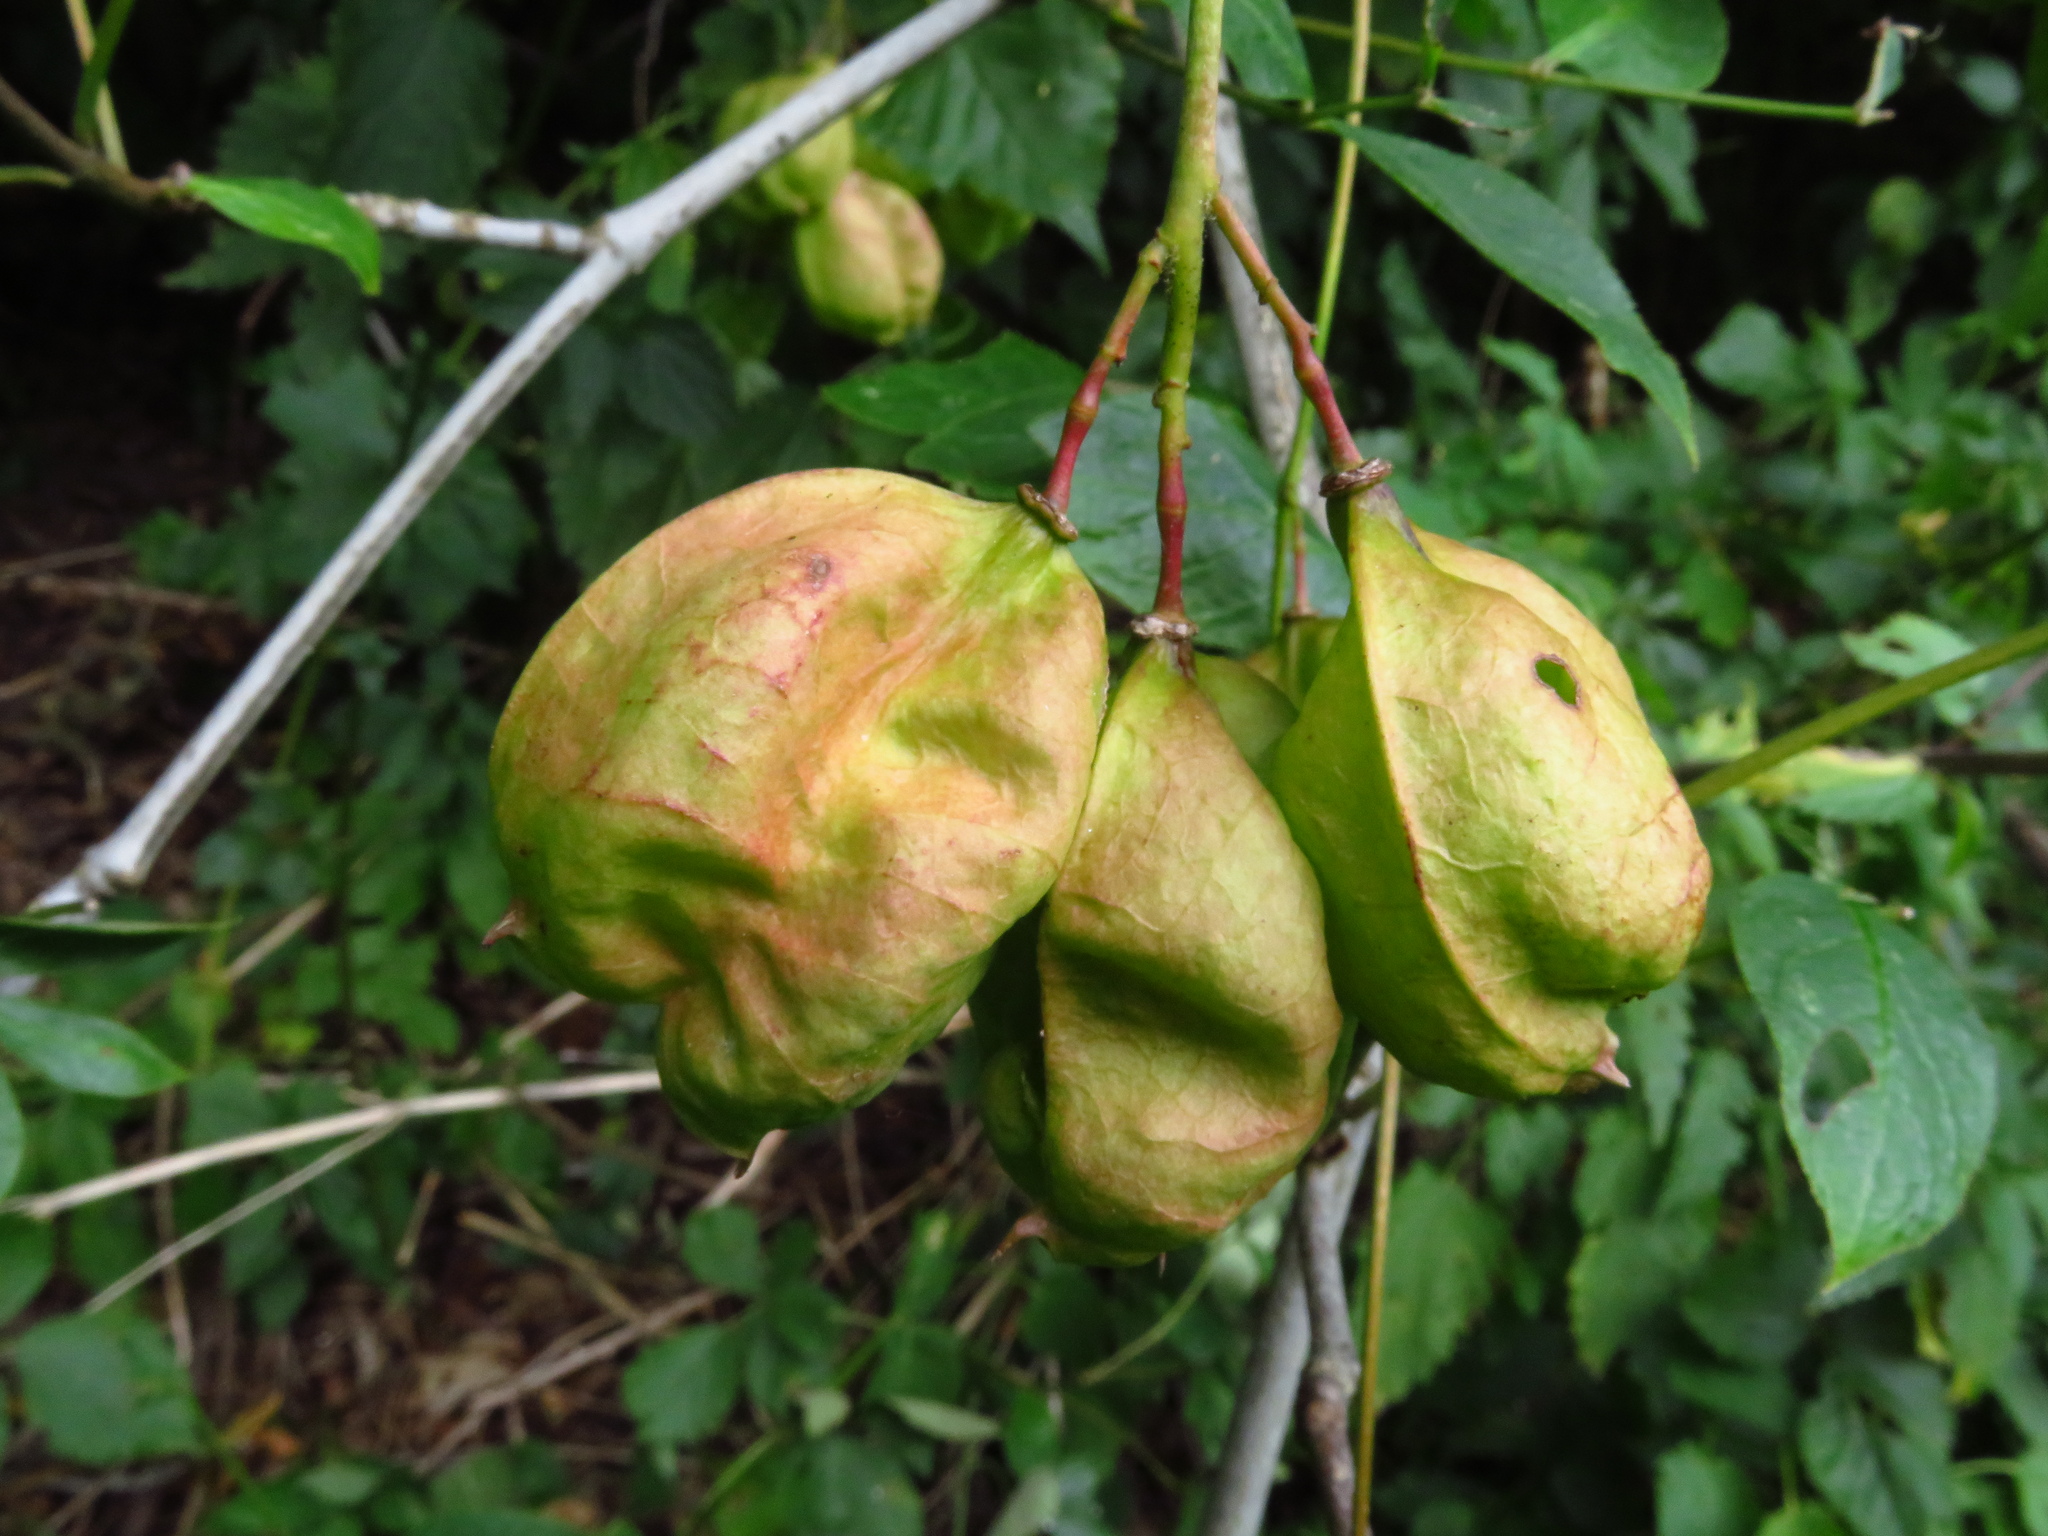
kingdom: Plantae
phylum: Tracheophyta
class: Magnoliopsida
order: Crossosomatales
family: Staphyleaceae
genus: Staphylea
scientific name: Staphylea pinnata
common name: Bladdernut
